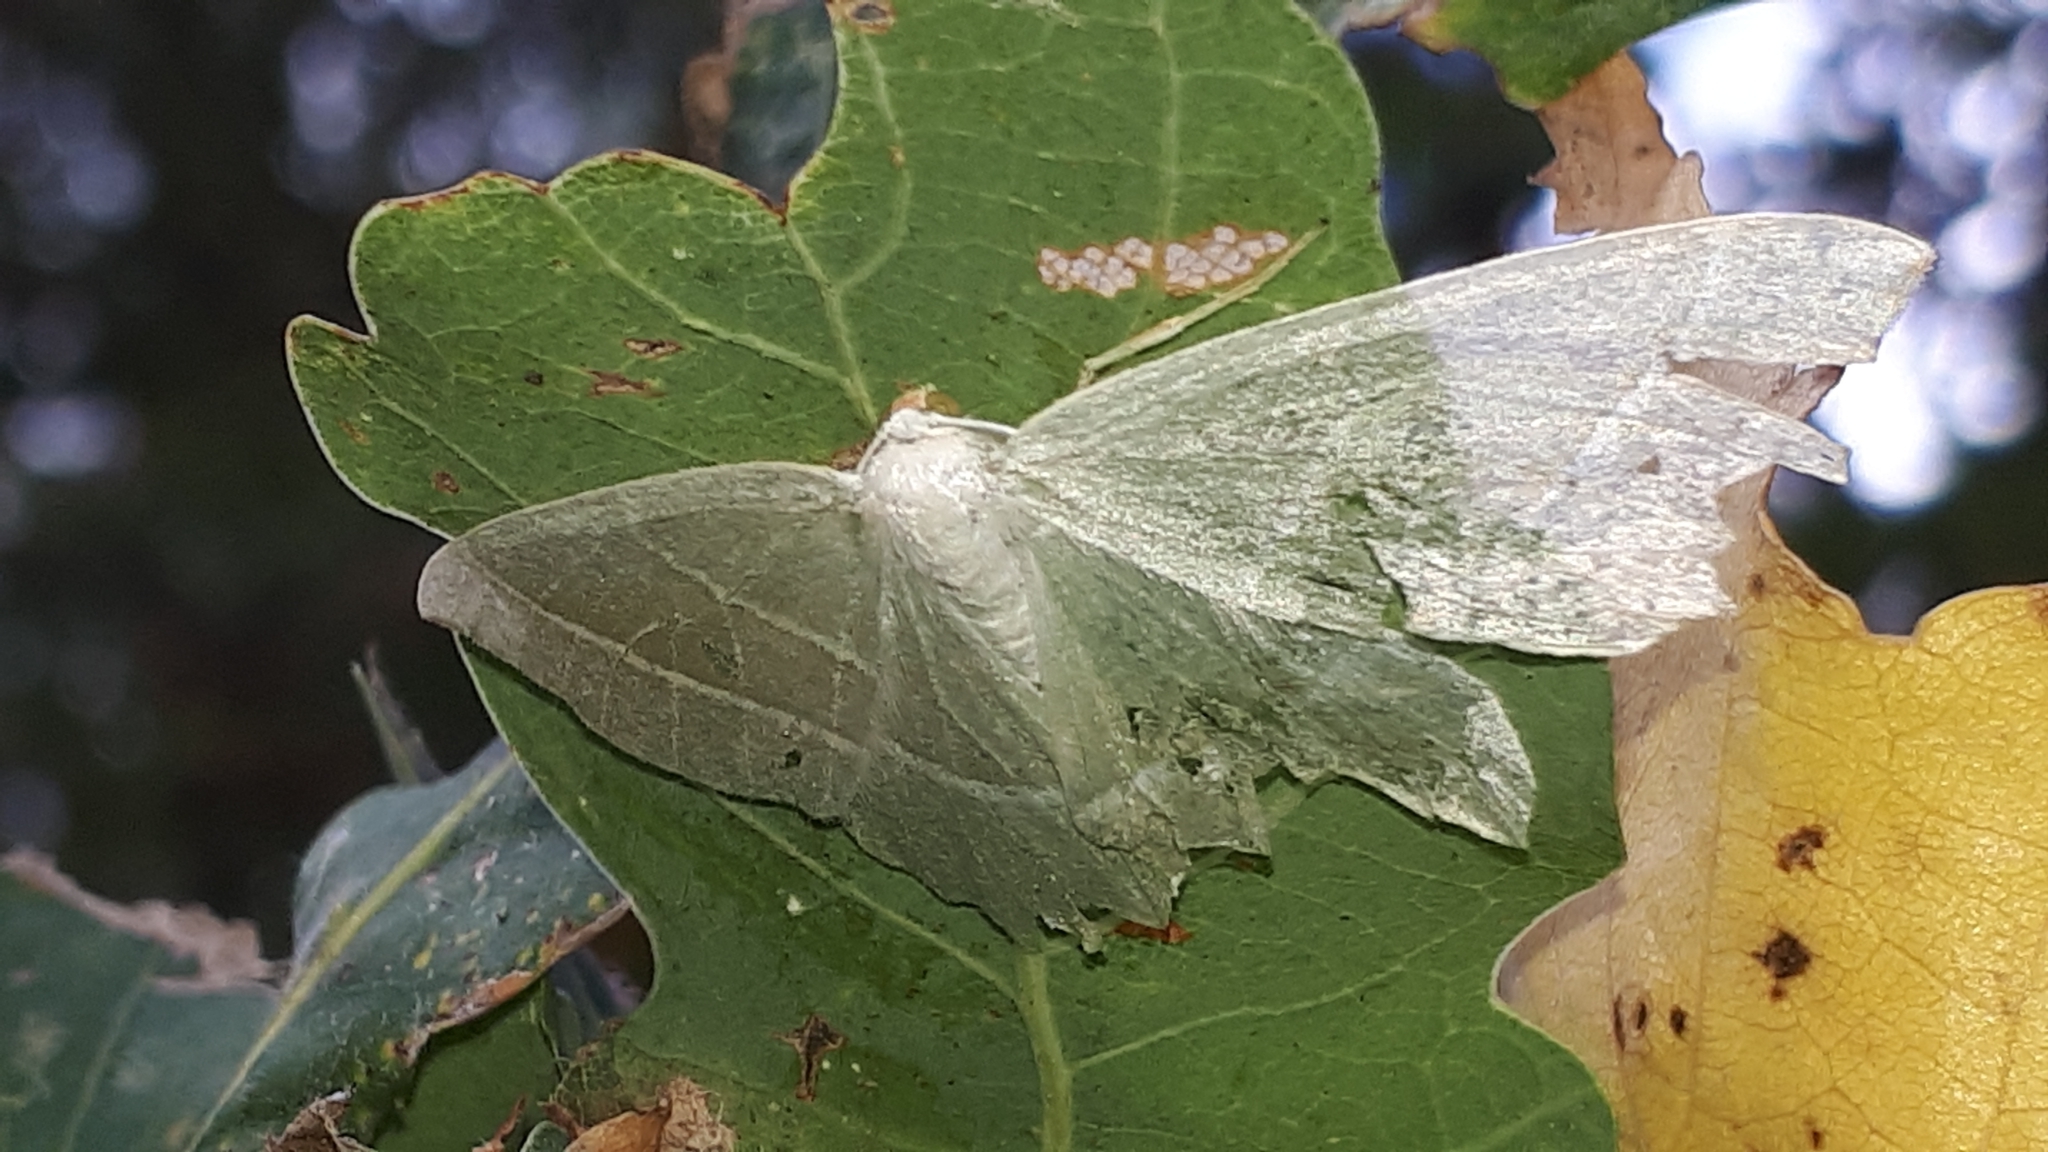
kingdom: Animalia
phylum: Arthropoda
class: Insecta
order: Lepidoptera
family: Geometridae
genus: Campaea
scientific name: Campaea margaritaria
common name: Light emerald
